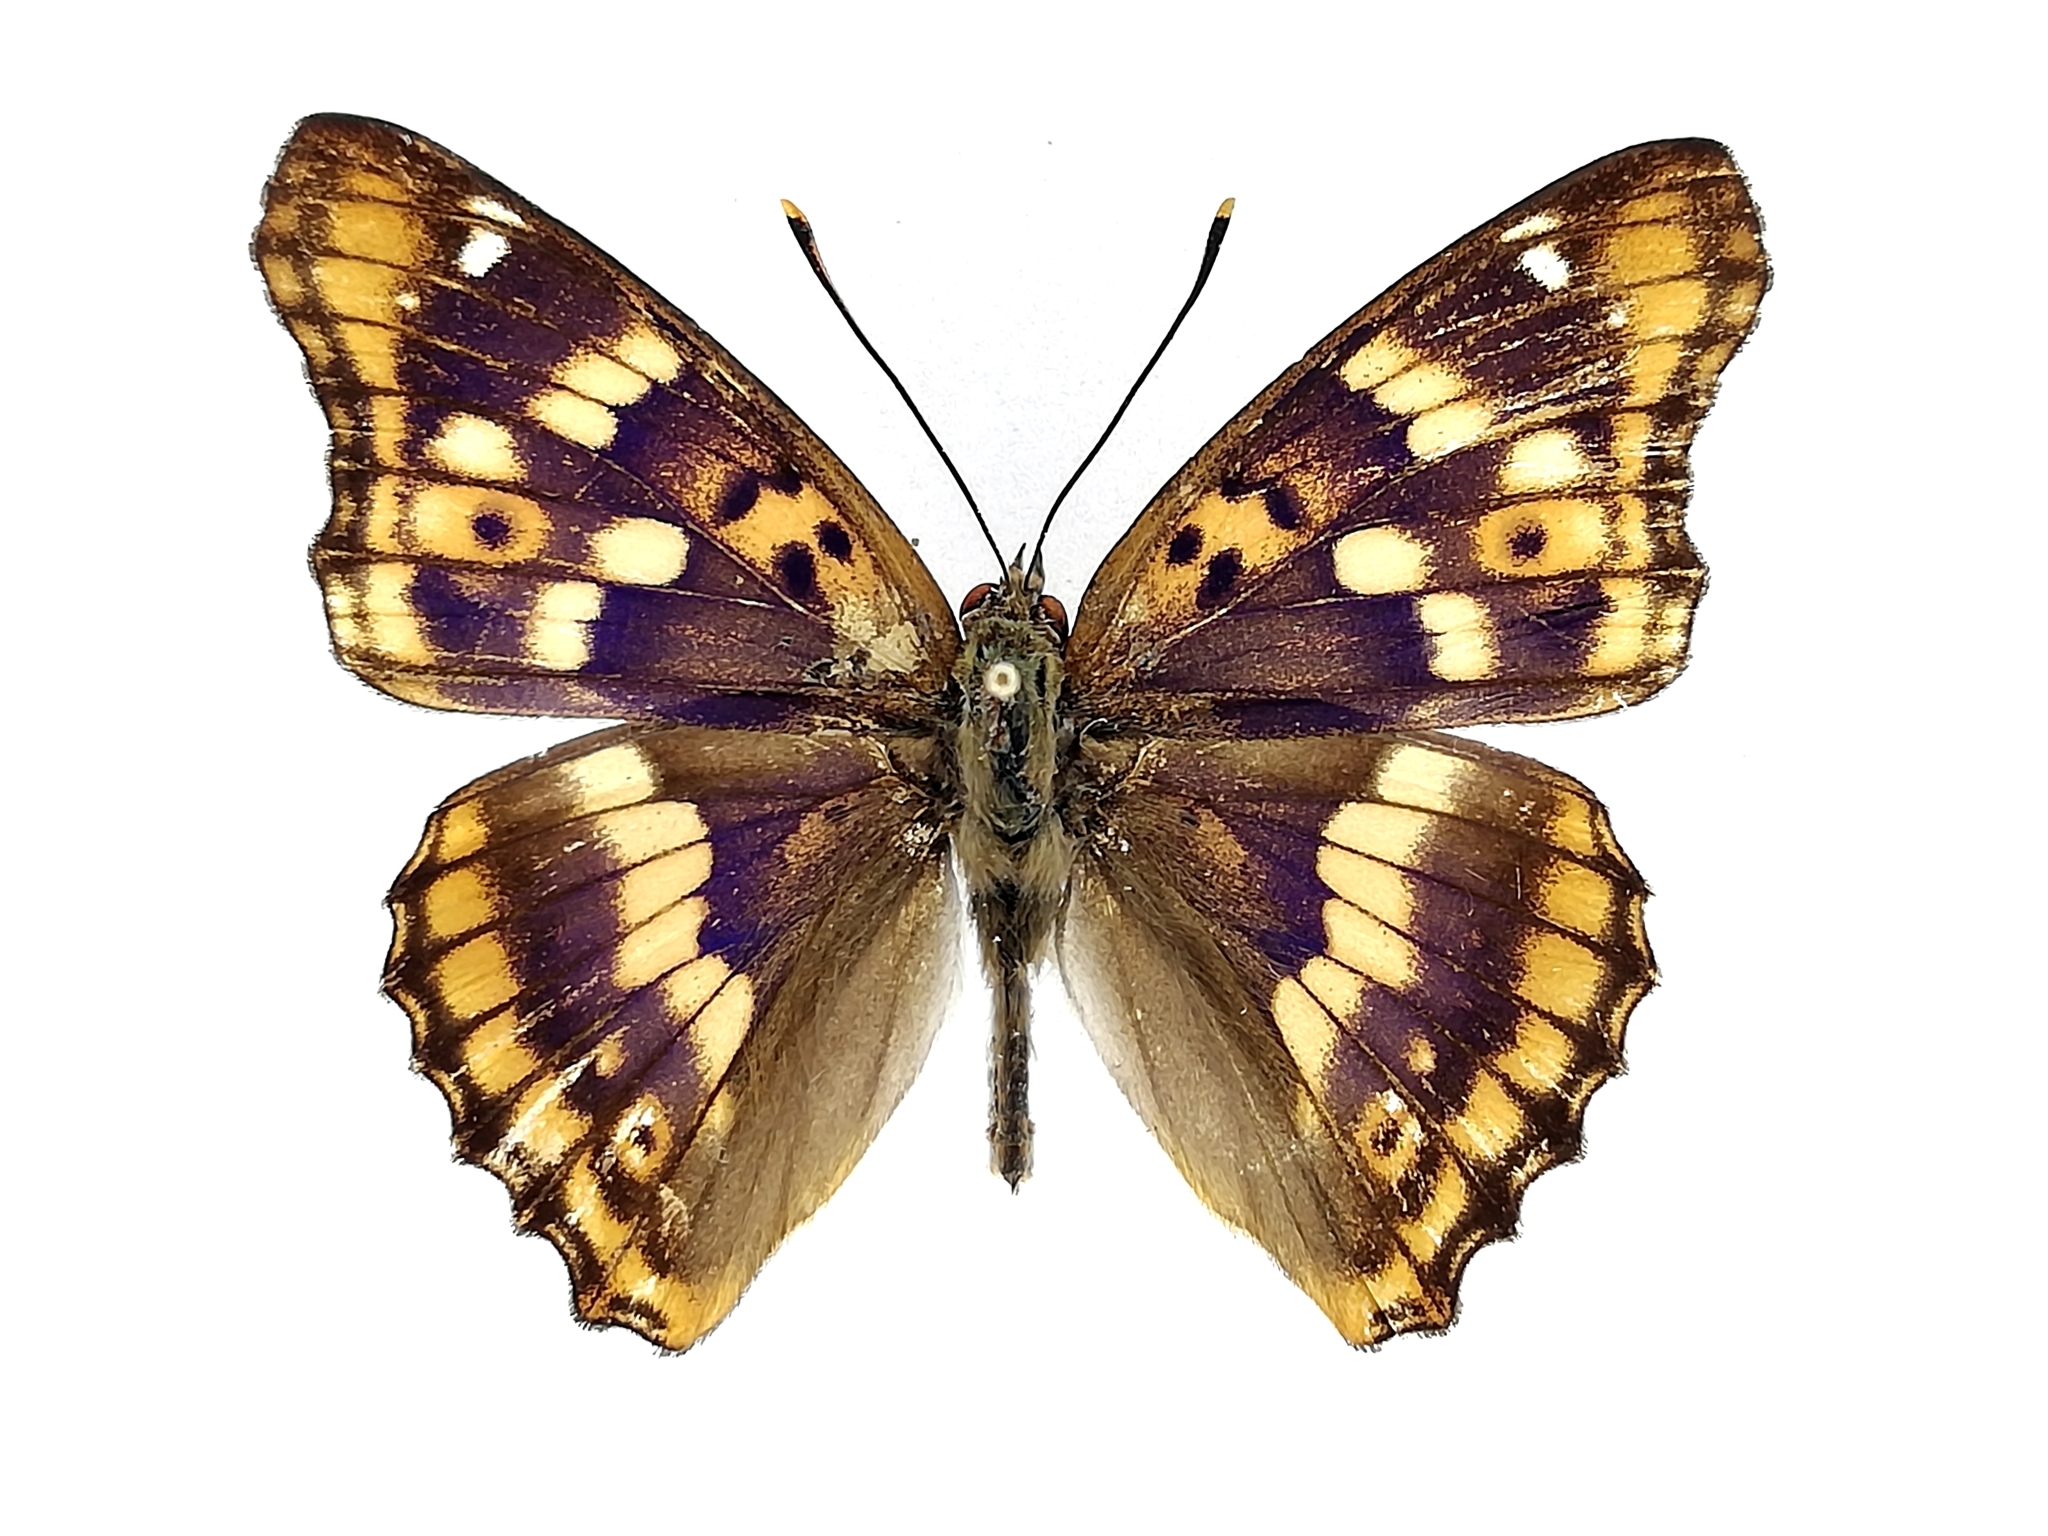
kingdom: Animalia
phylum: Arthropoda
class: Insecta
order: Lepidoptera
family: Nymphalidae
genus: Apatura
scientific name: Apatura ilia
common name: Lesser purple emperor
